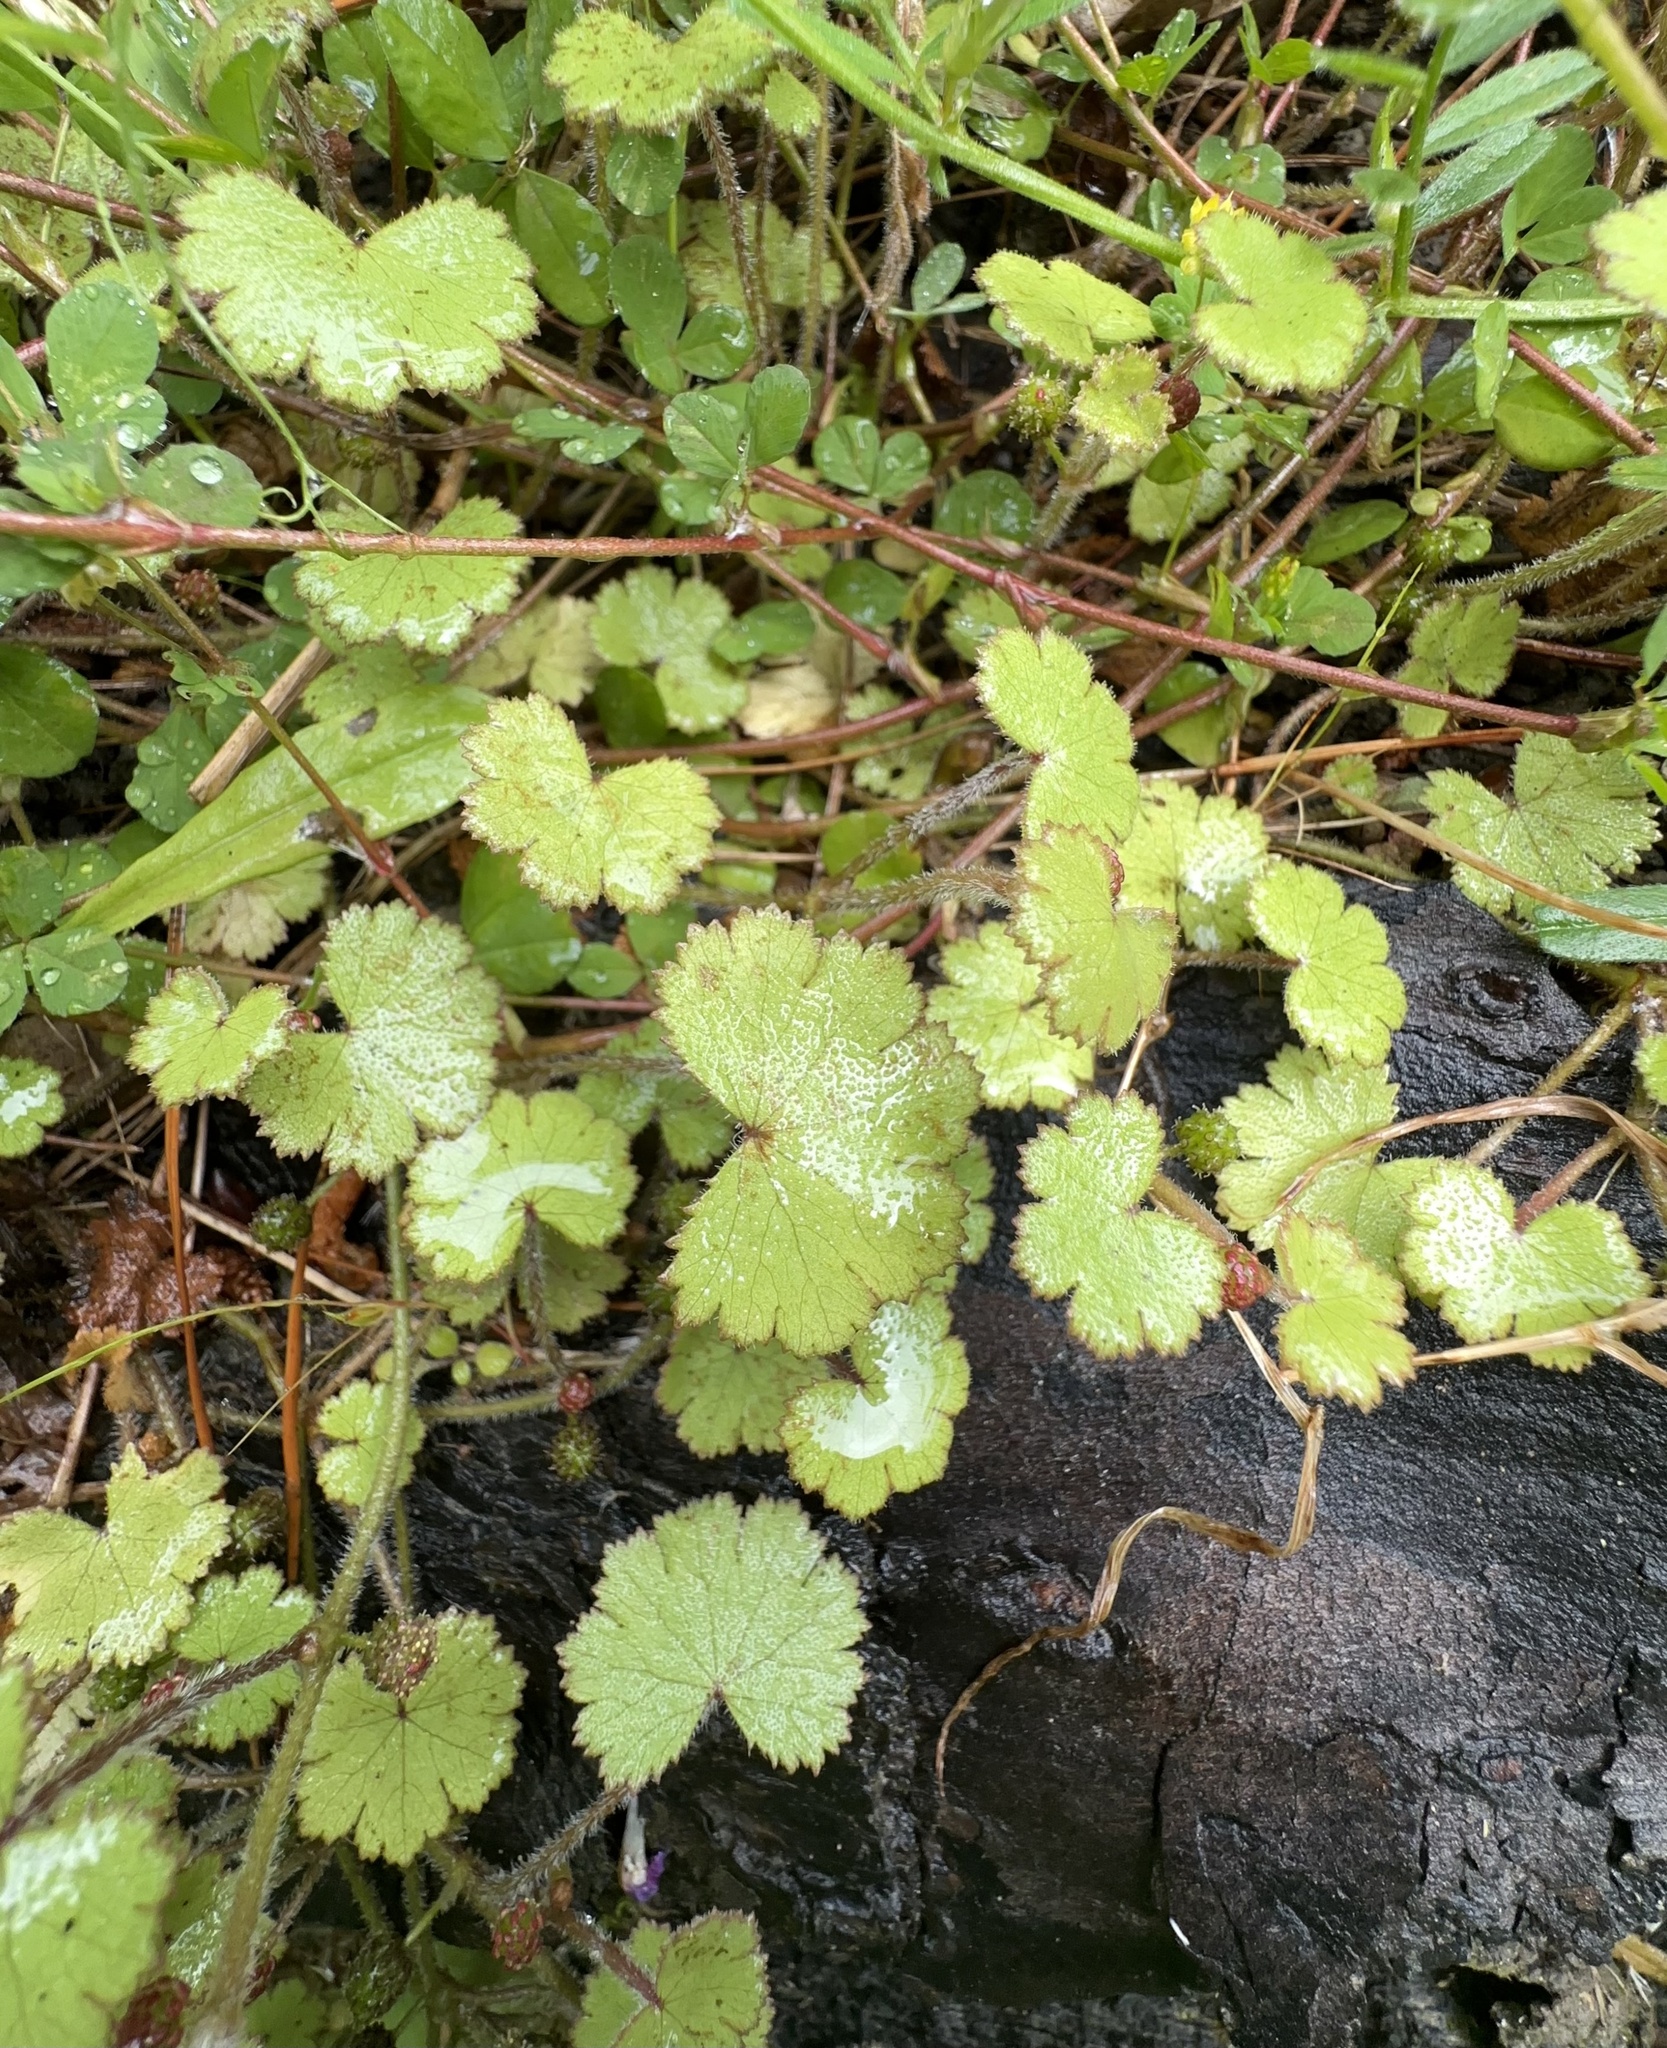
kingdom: Plantae
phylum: Tracheophyta
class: Magnoliopsida
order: Apiales
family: Araliaceae
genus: Hydrocotyle
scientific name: Hydrocotyle moschata
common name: Hairy pennywort
